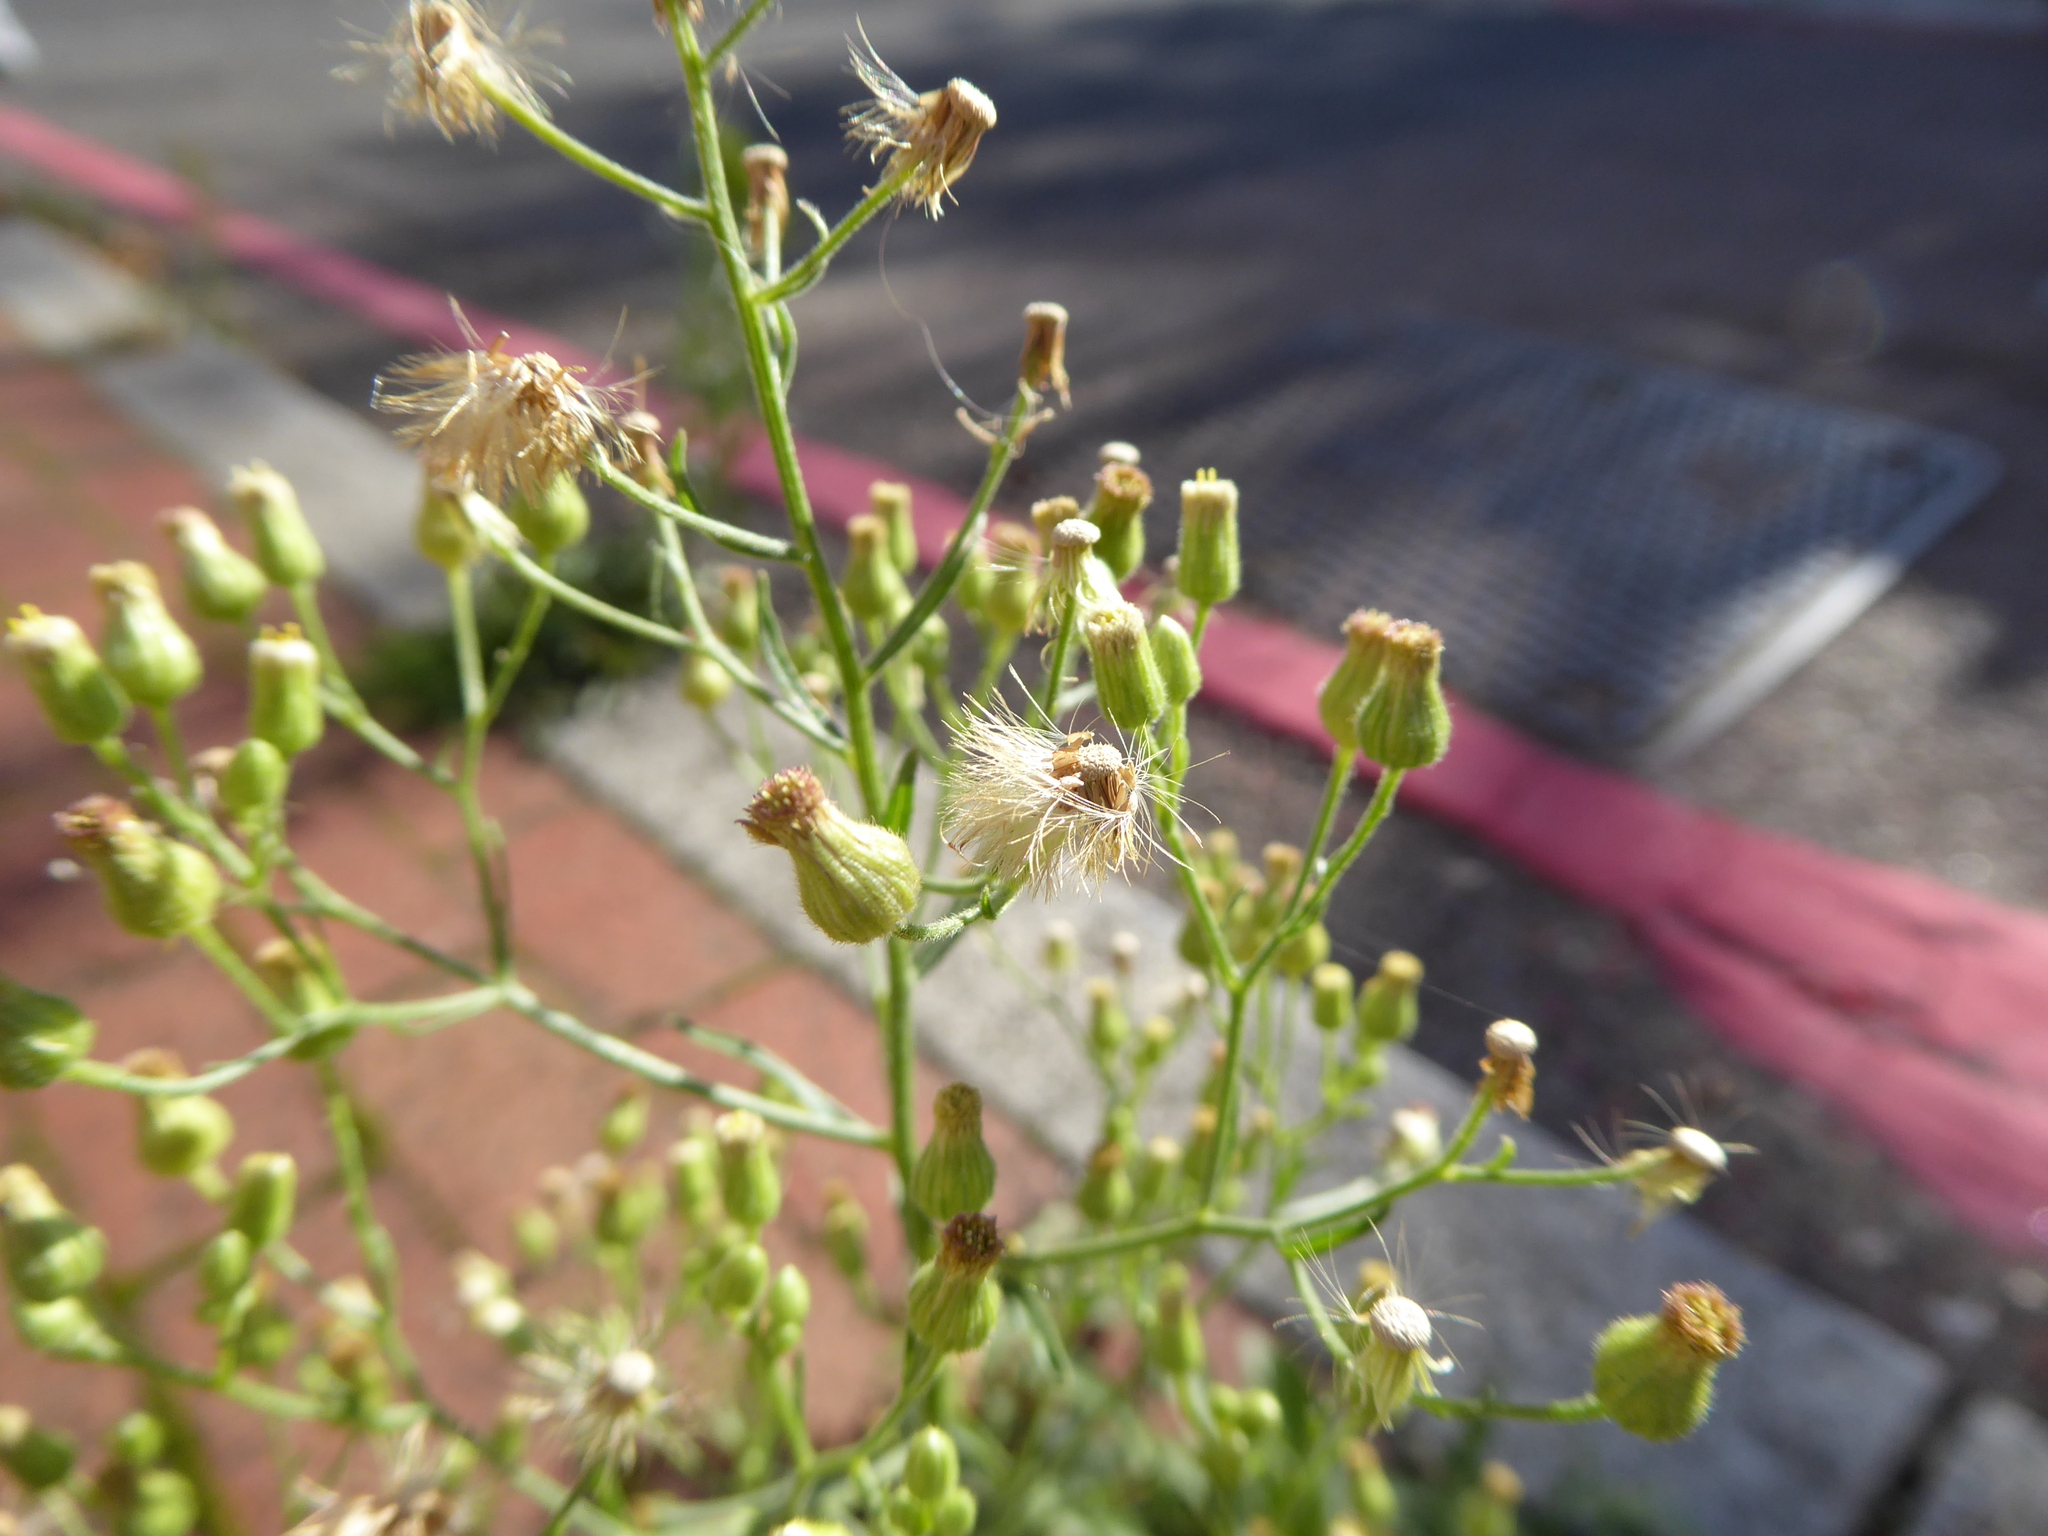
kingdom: Plantae
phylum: Tracheophyta
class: Magnoliopsida
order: Asterales
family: Asteraceae
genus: Erigeron
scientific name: Erigeron sumatrensis
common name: Daisy
